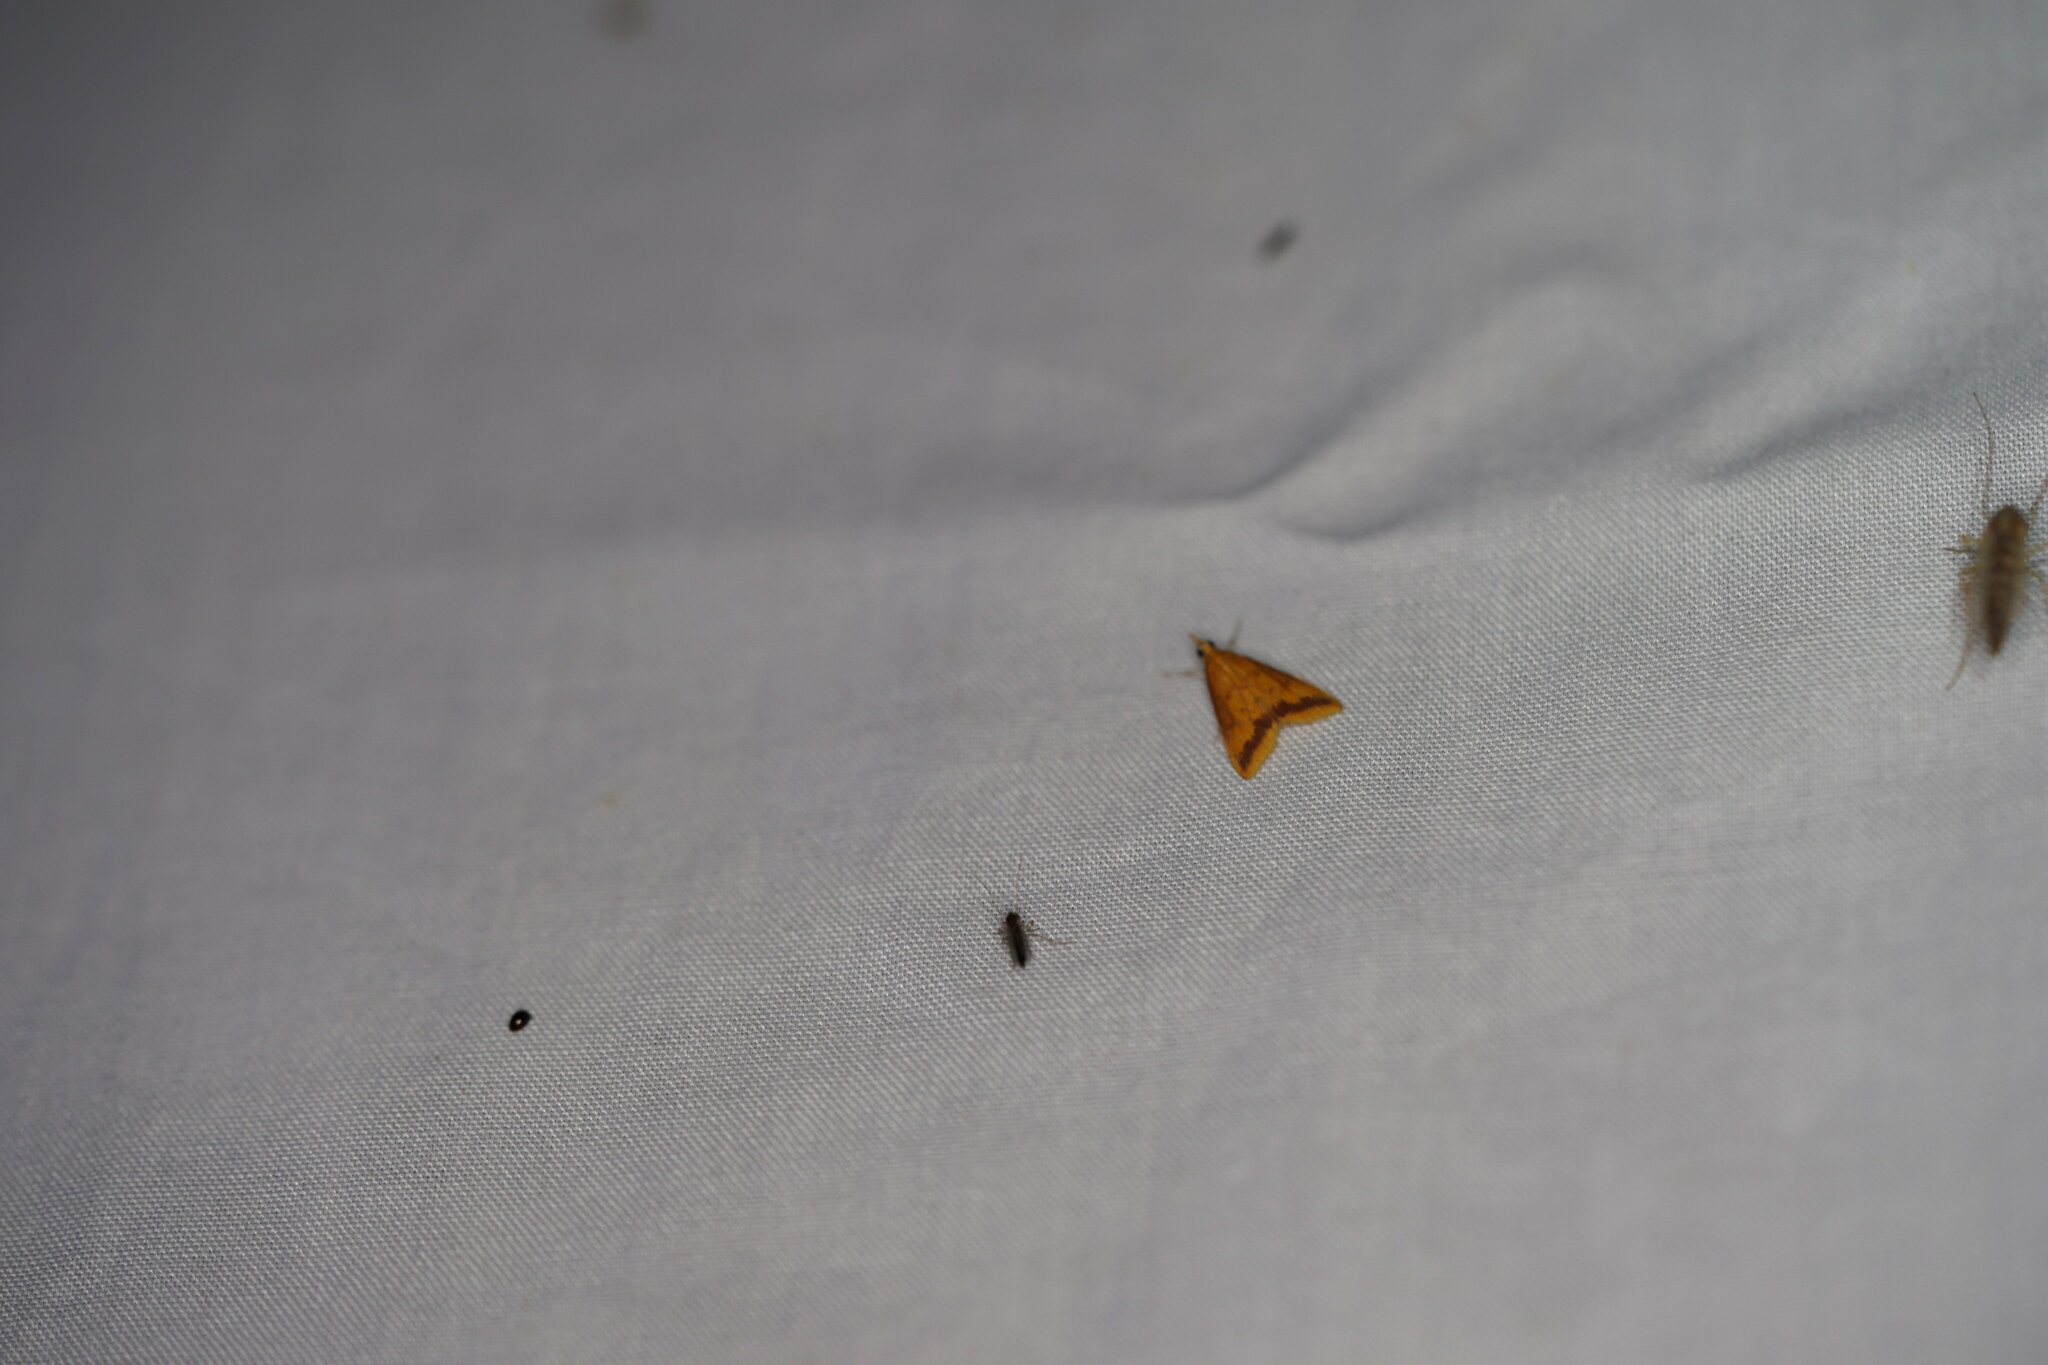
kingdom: Animalia
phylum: Arthropoda
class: Insecta
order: Lepidoptera
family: Crambidae
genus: Hyalorista
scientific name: Hyalorista taeniolalis
